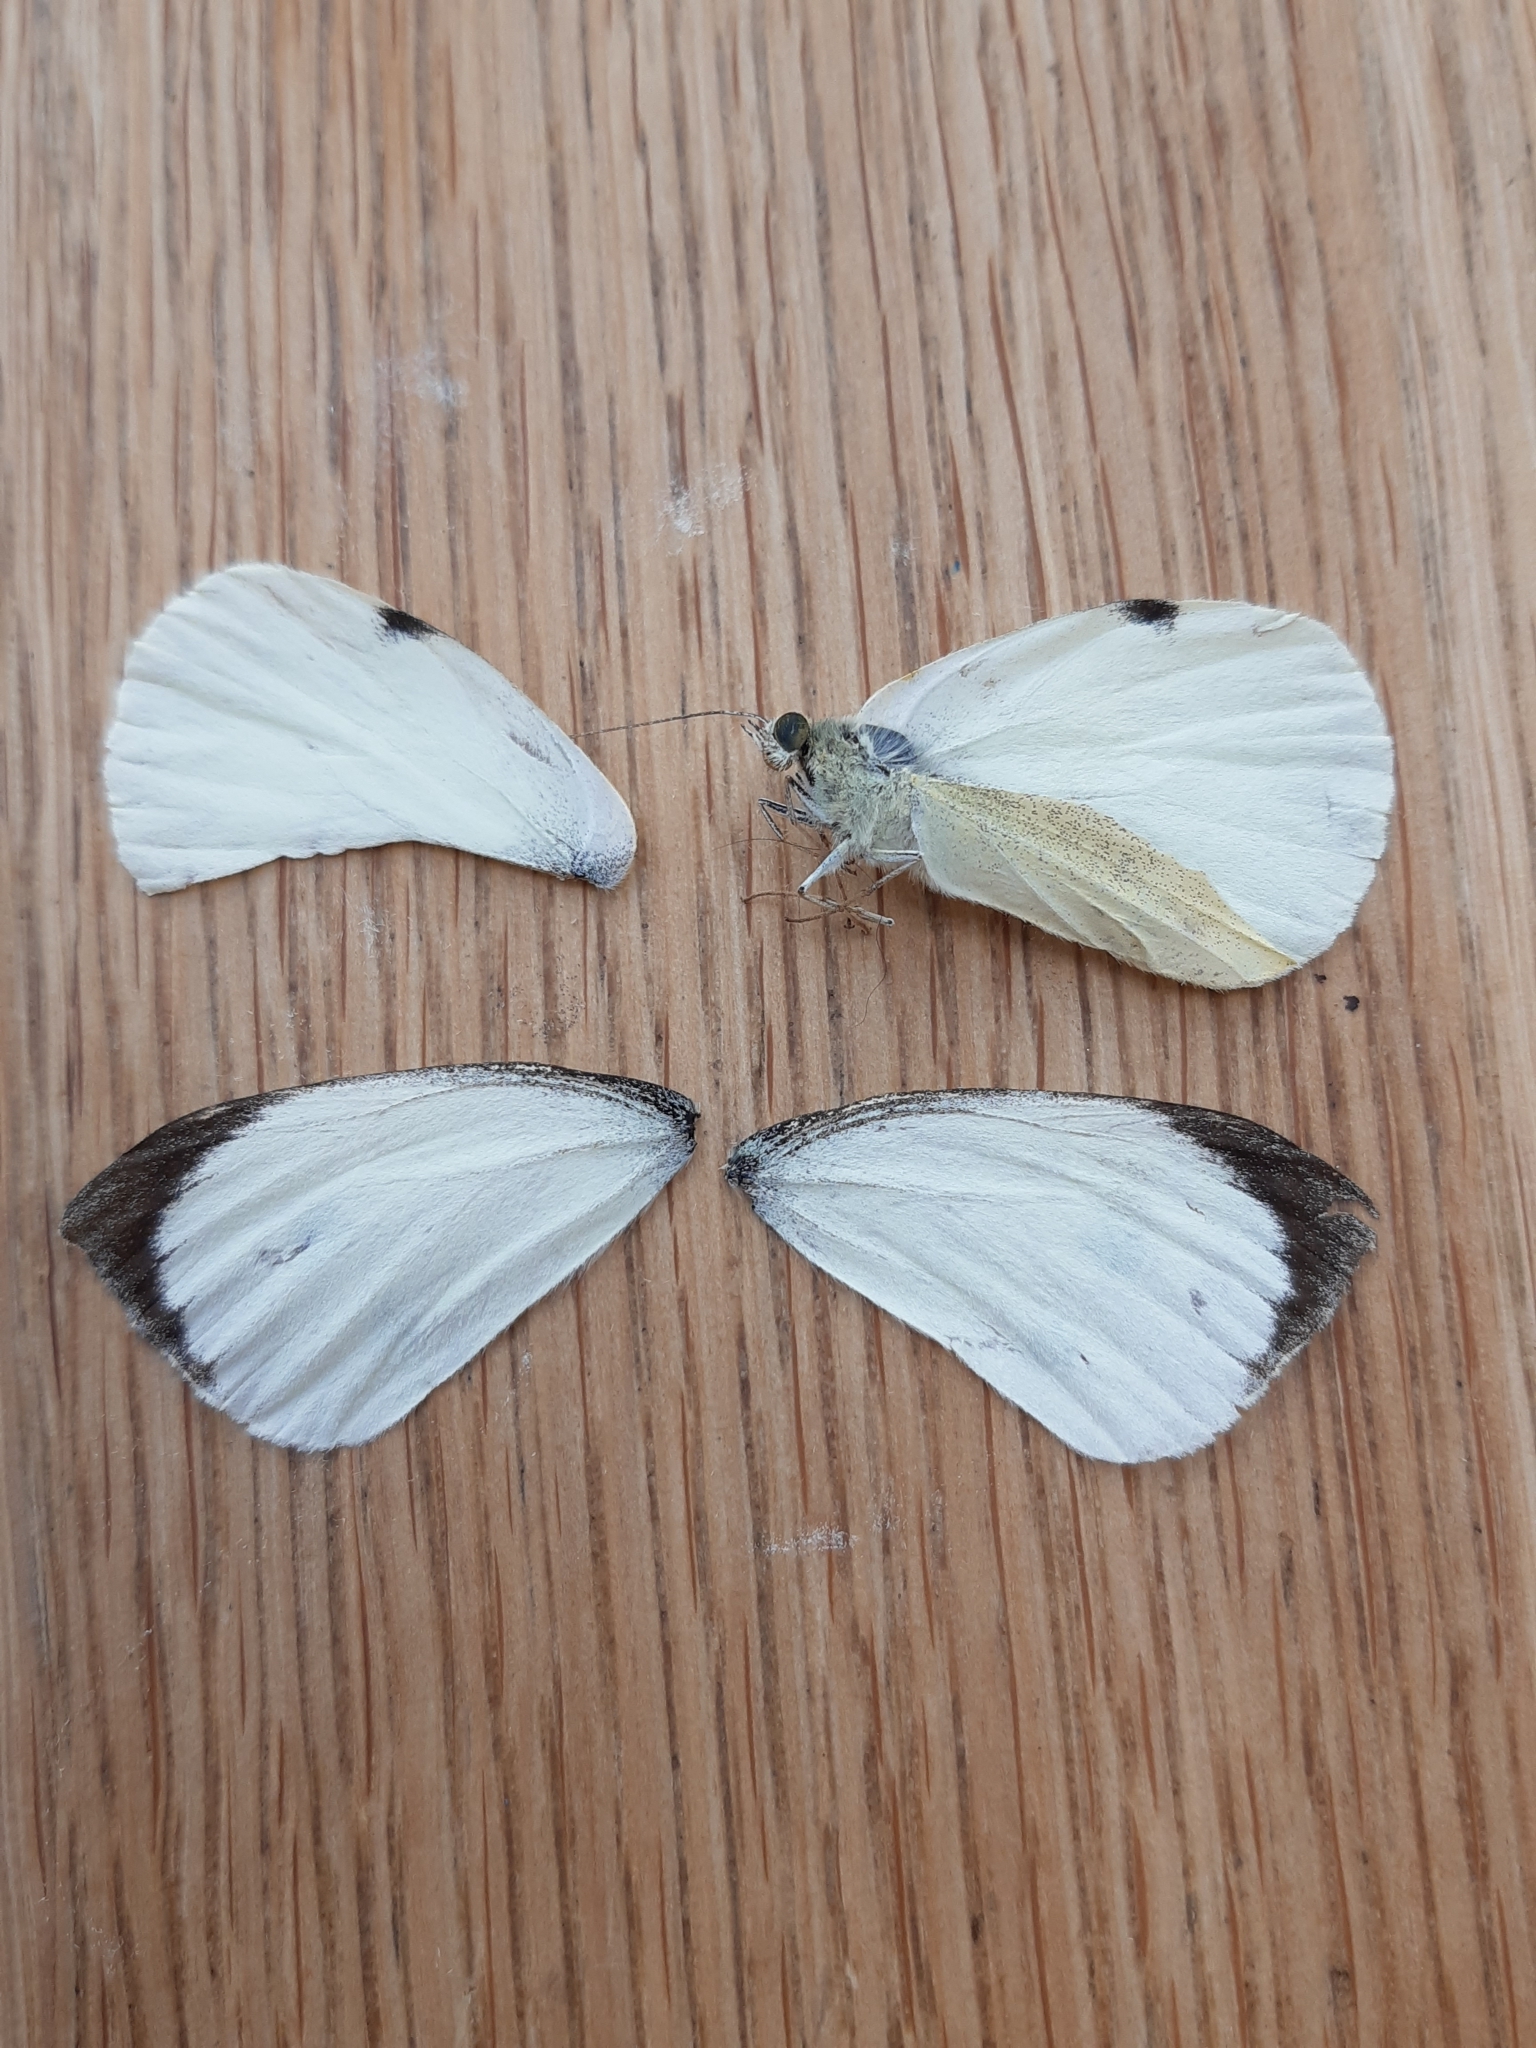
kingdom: Animalia
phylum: Arthropoda
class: Insecta
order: Lepidoptera
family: Pieridae
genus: Pieris
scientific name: Pieris brassicae
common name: Large white
